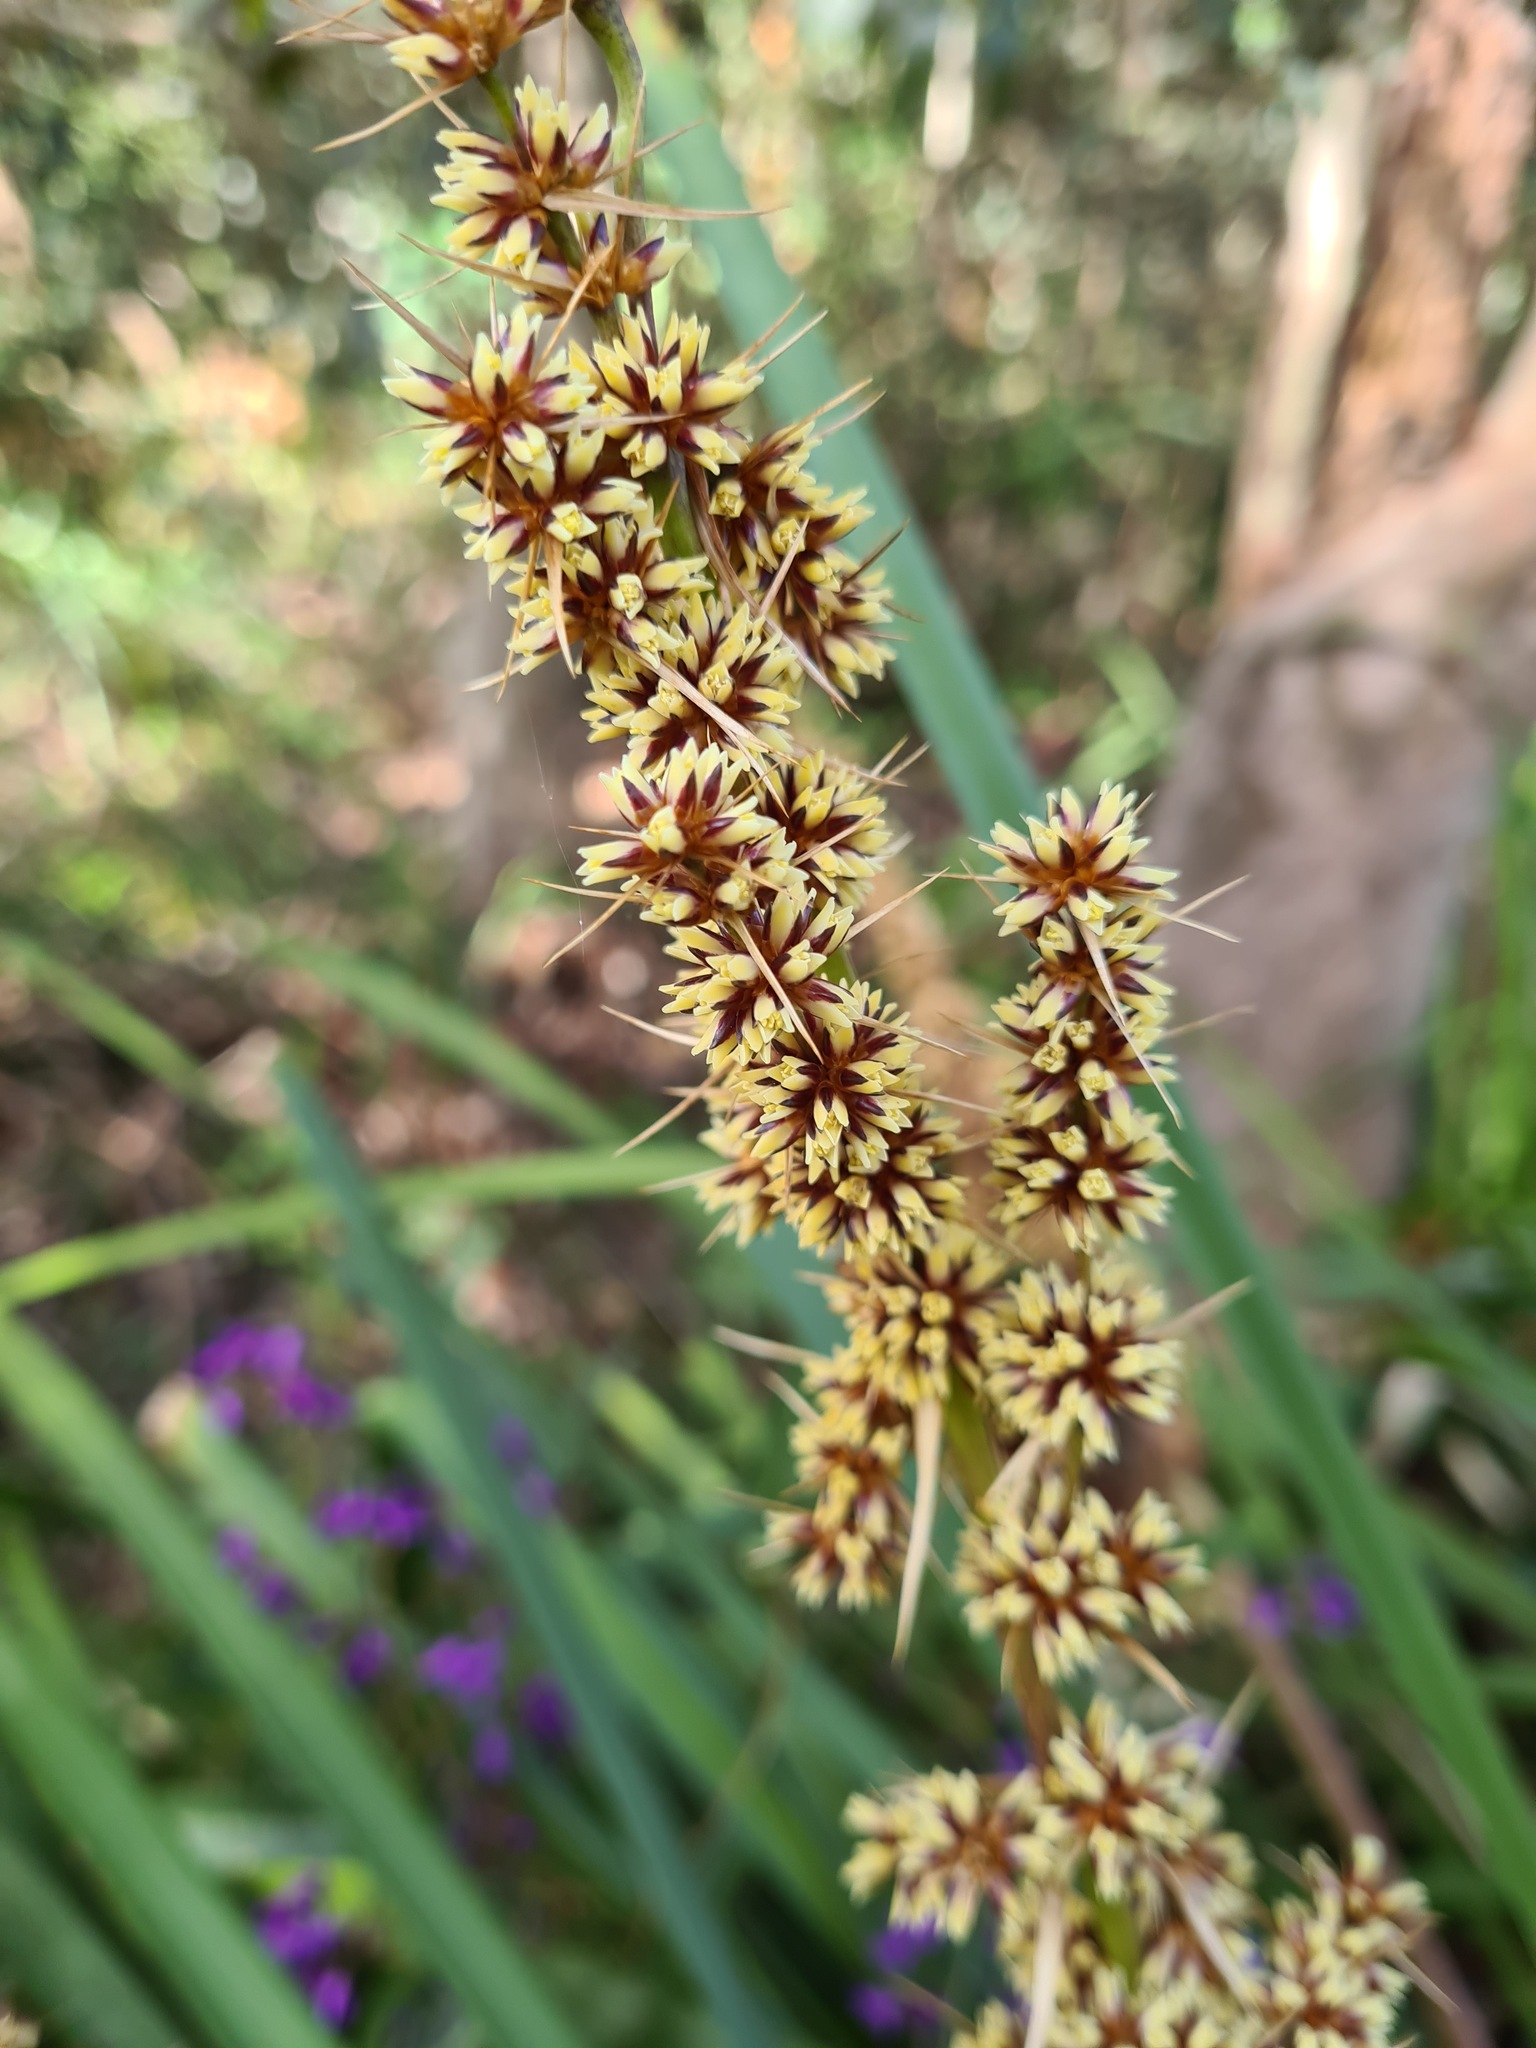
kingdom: Plantae
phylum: Tracheophyta
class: Liliopsida
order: Asparagales
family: Asparagaceae
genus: Lomandra
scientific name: Lomandra longifolia
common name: Longleaf mat-rush
